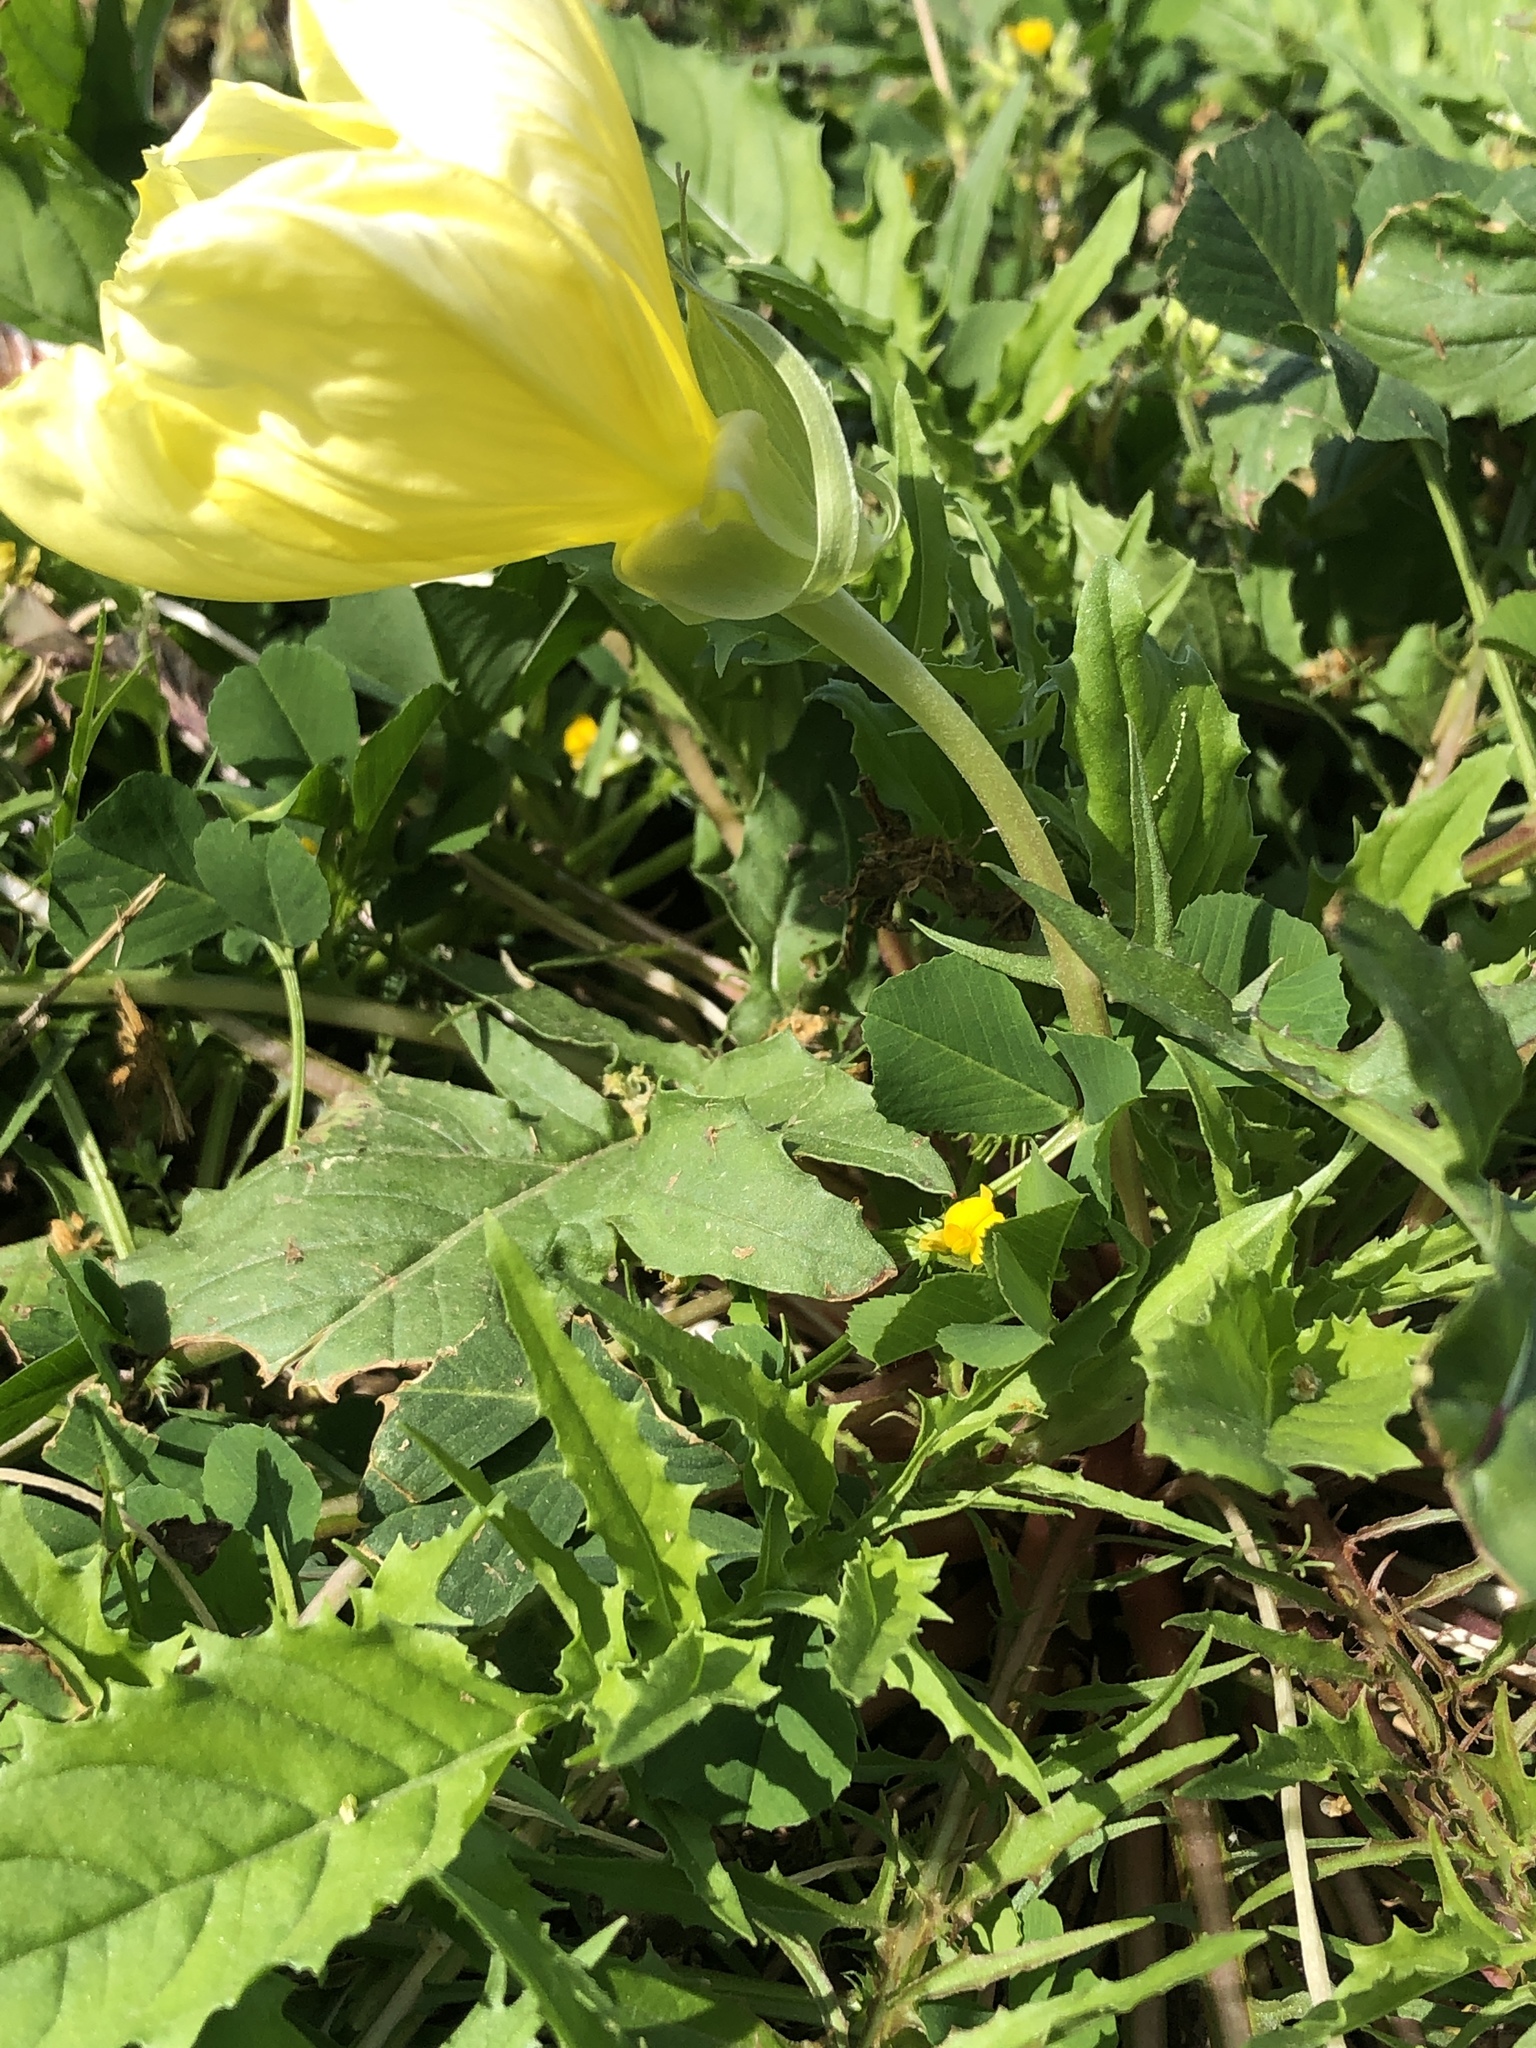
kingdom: Plantae
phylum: Tracheophyta
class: Magnoliopsida
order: Myrtales
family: Onagraceae
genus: Oenothera
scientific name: Oenothera triloba
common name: Sessile evening-primrose
